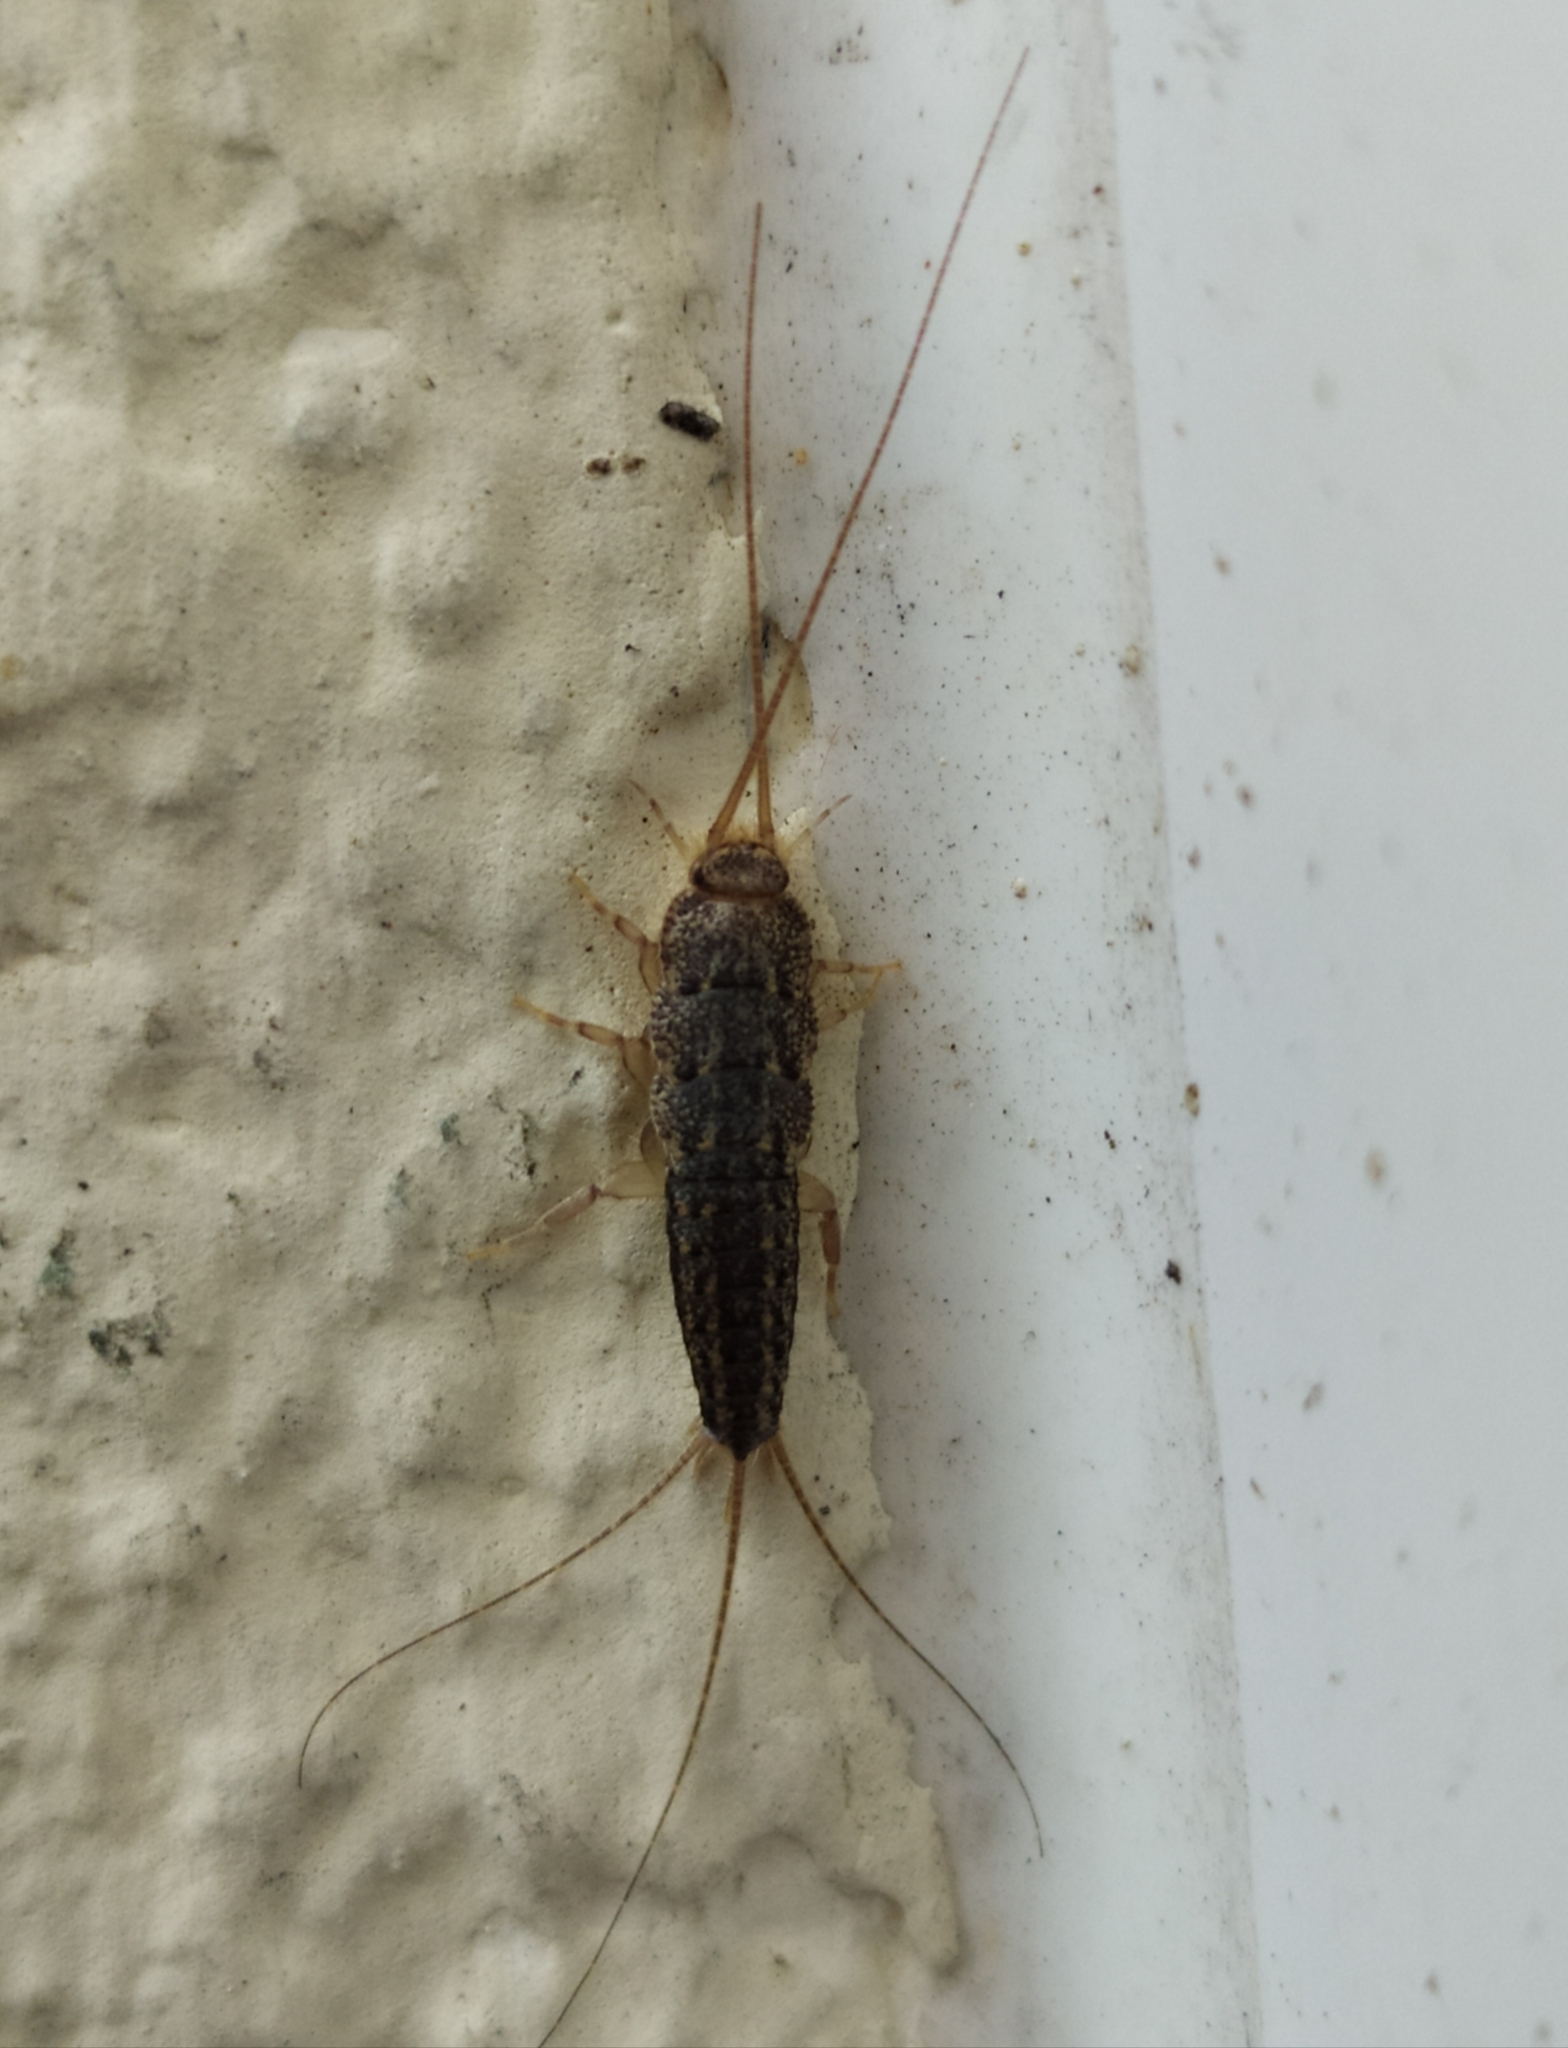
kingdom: Animalia
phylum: Arthropoda
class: Insecta
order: Zygentoma
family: Lepismatidae
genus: Ctenolepisma
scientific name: Ctenolepisma lineata
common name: Four-lined silverfish
